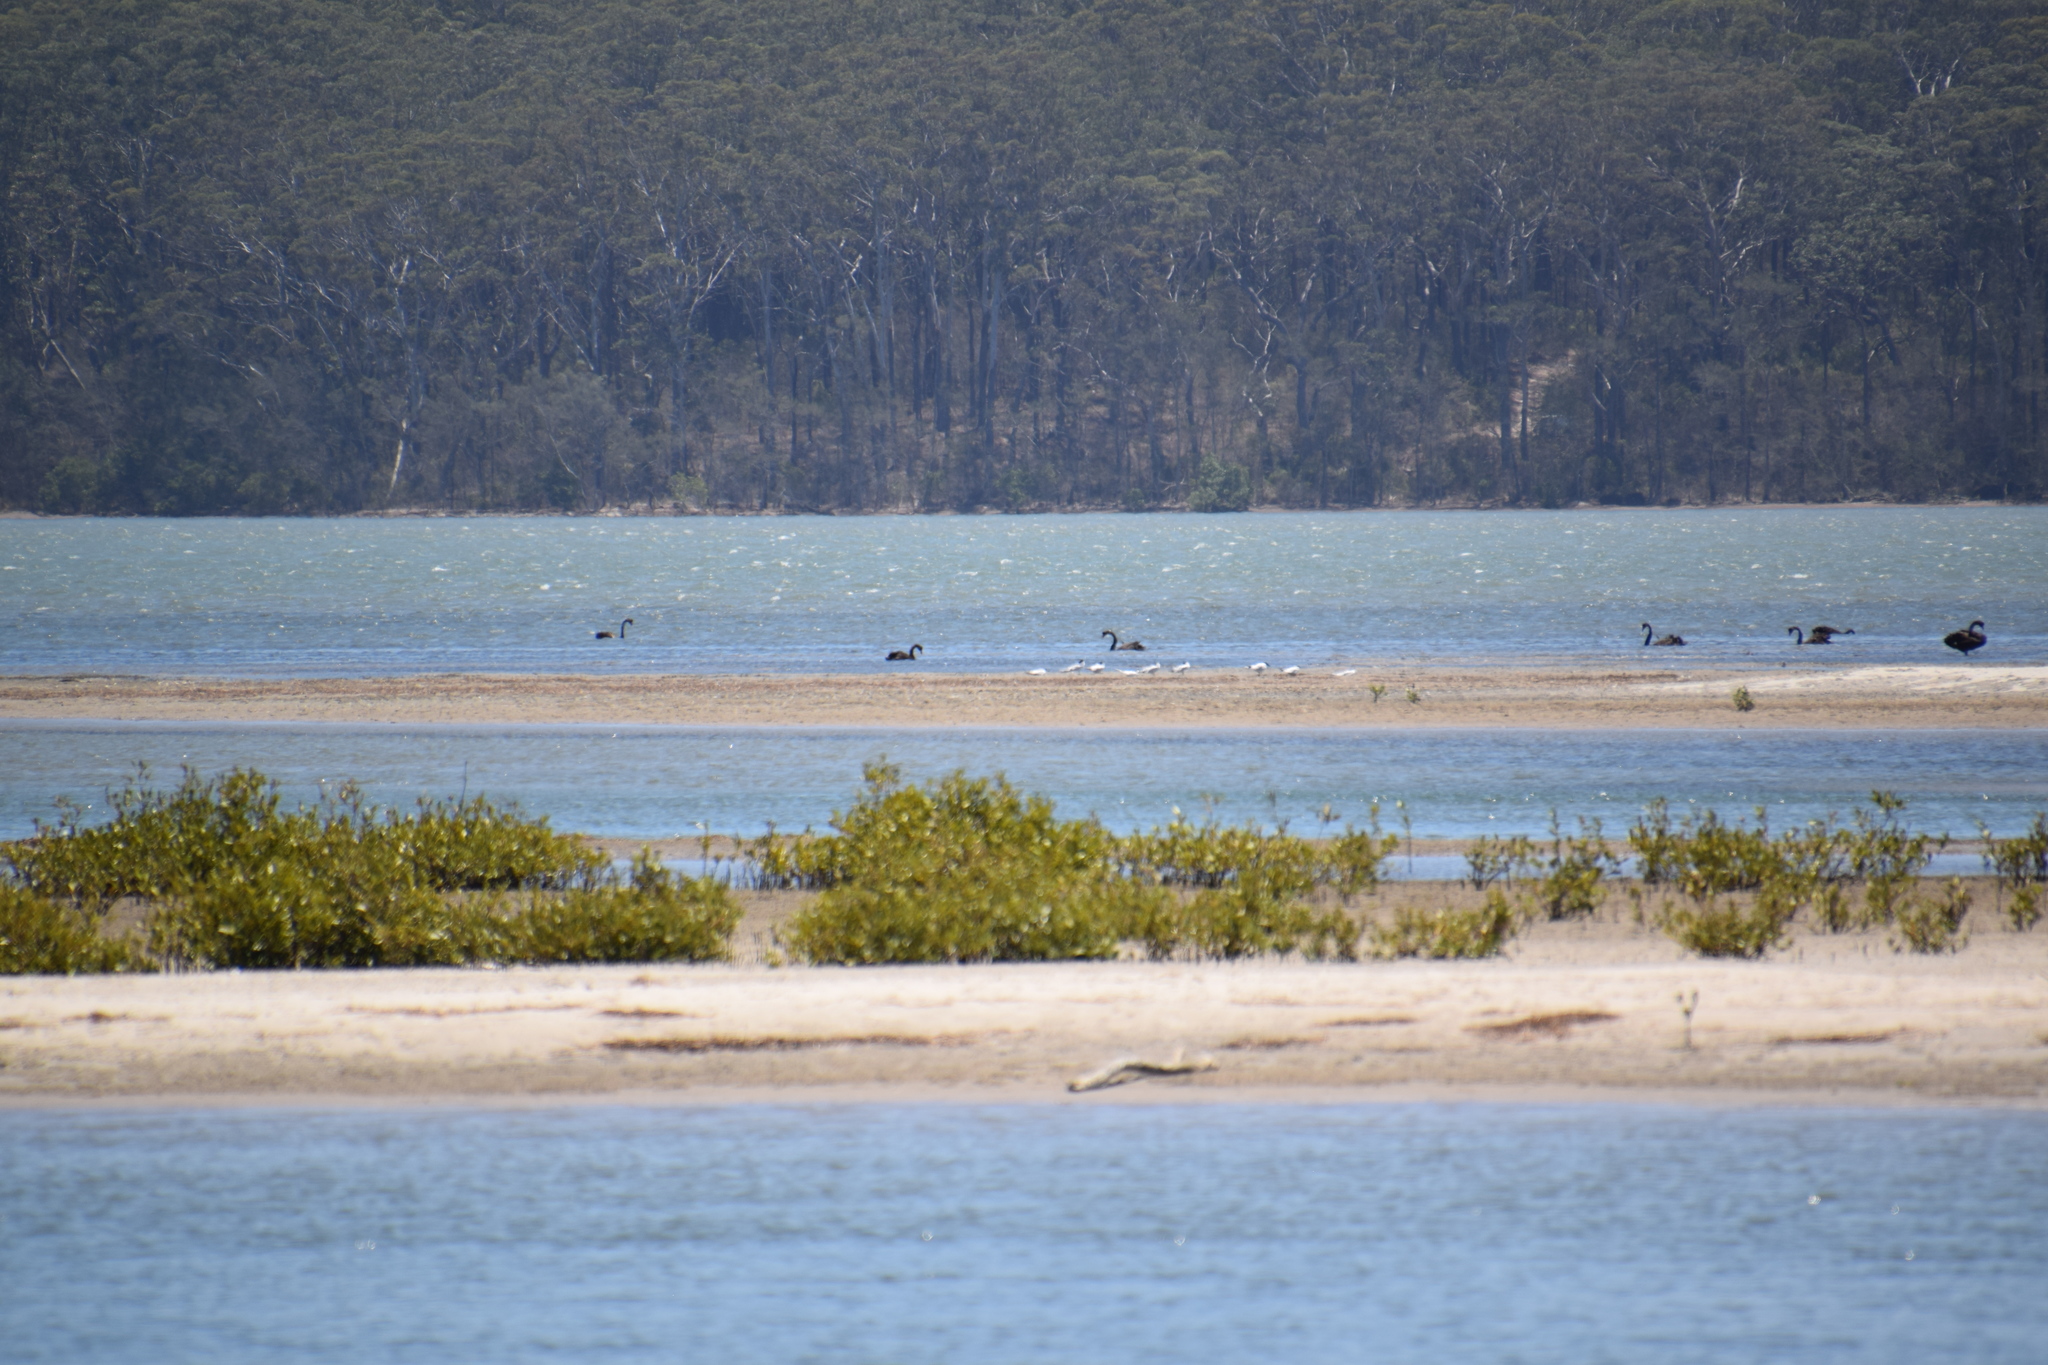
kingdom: Animalia
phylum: Chordata
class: Aves
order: Anseriformes
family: Anatidae
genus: Cygnus
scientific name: Cygnus atratus
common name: Black swan
